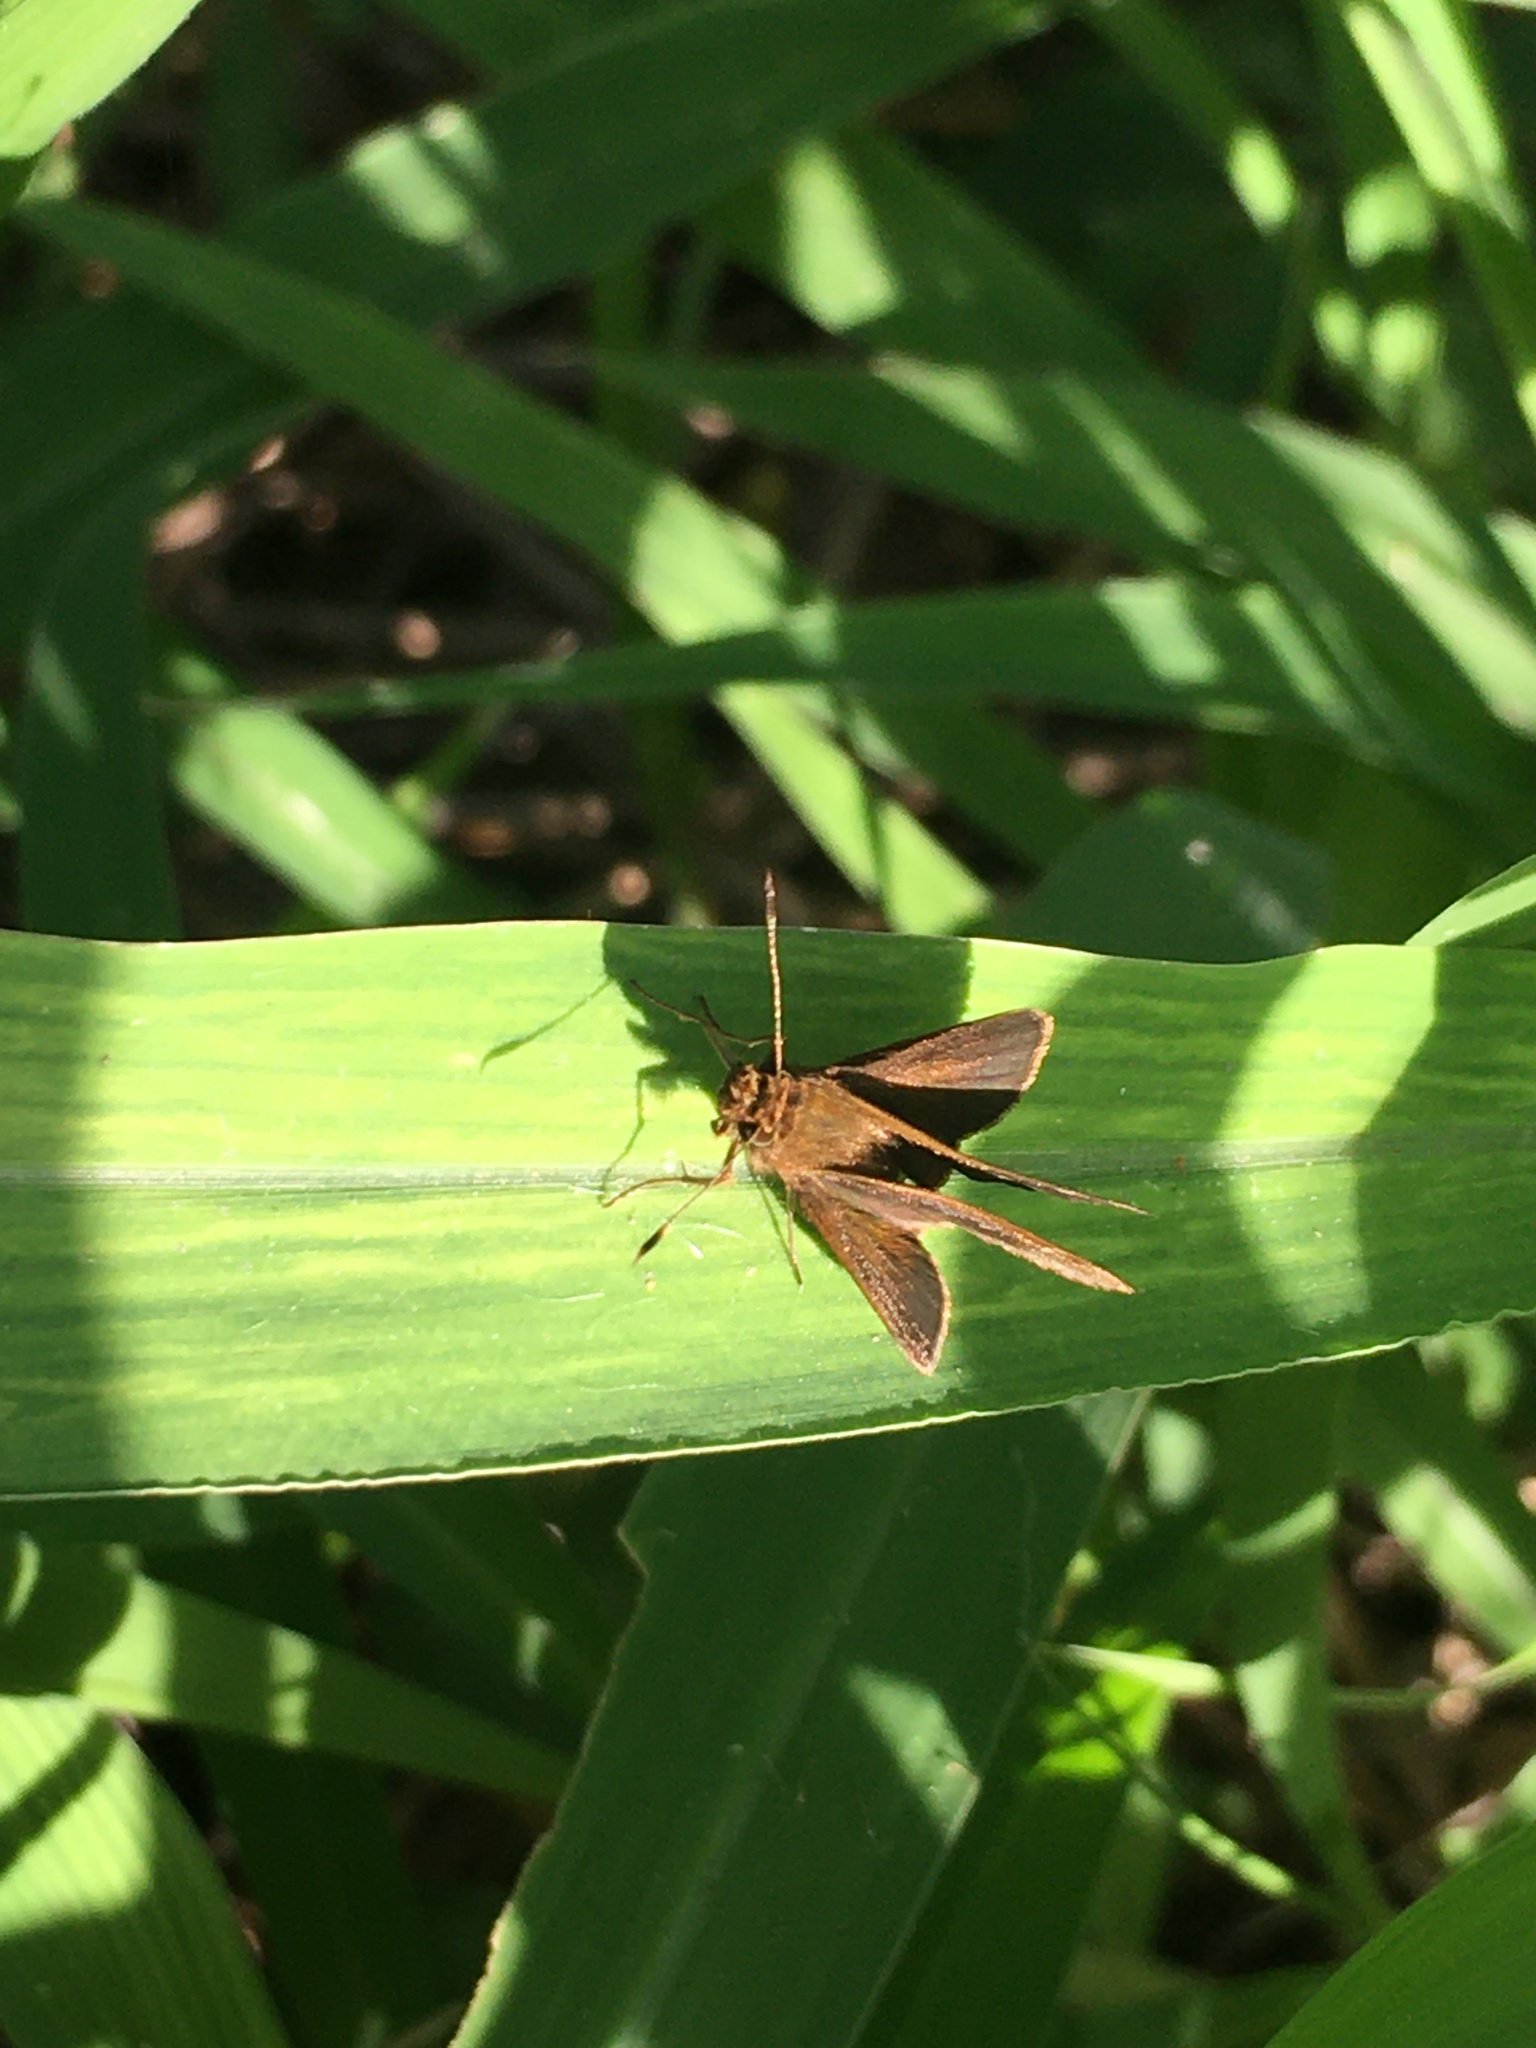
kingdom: Animalia
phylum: Arthropoda
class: Insecta
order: Lepidoptera
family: Hesperiidae
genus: Cymaenes
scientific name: Cymaenes
